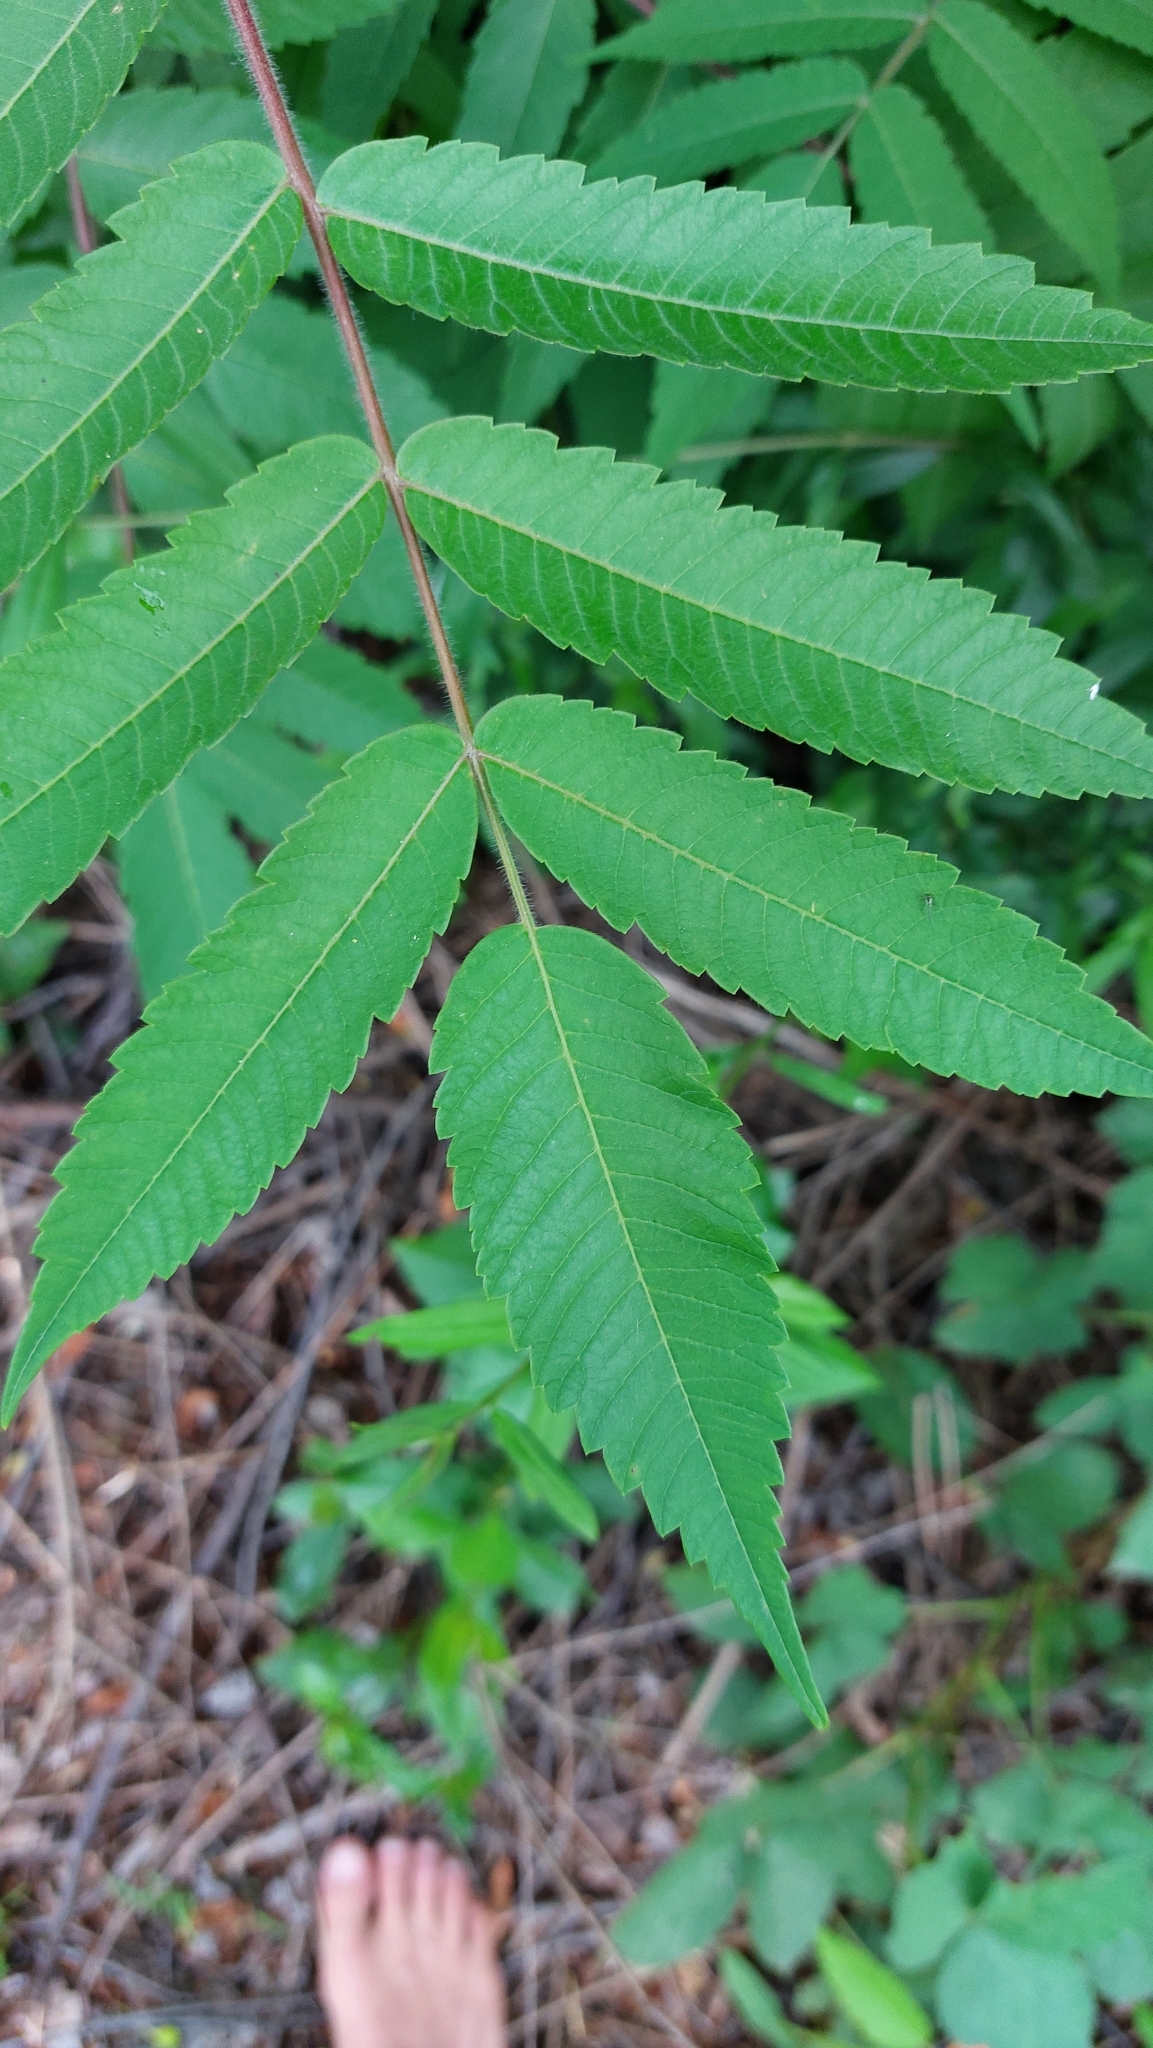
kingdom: Plantae
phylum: Tracheophyta
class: Magnoliopsida
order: Sapindales
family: Anacardiaceae
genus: Rhus
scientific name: Rhus typhina
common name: Staghorn sumac
